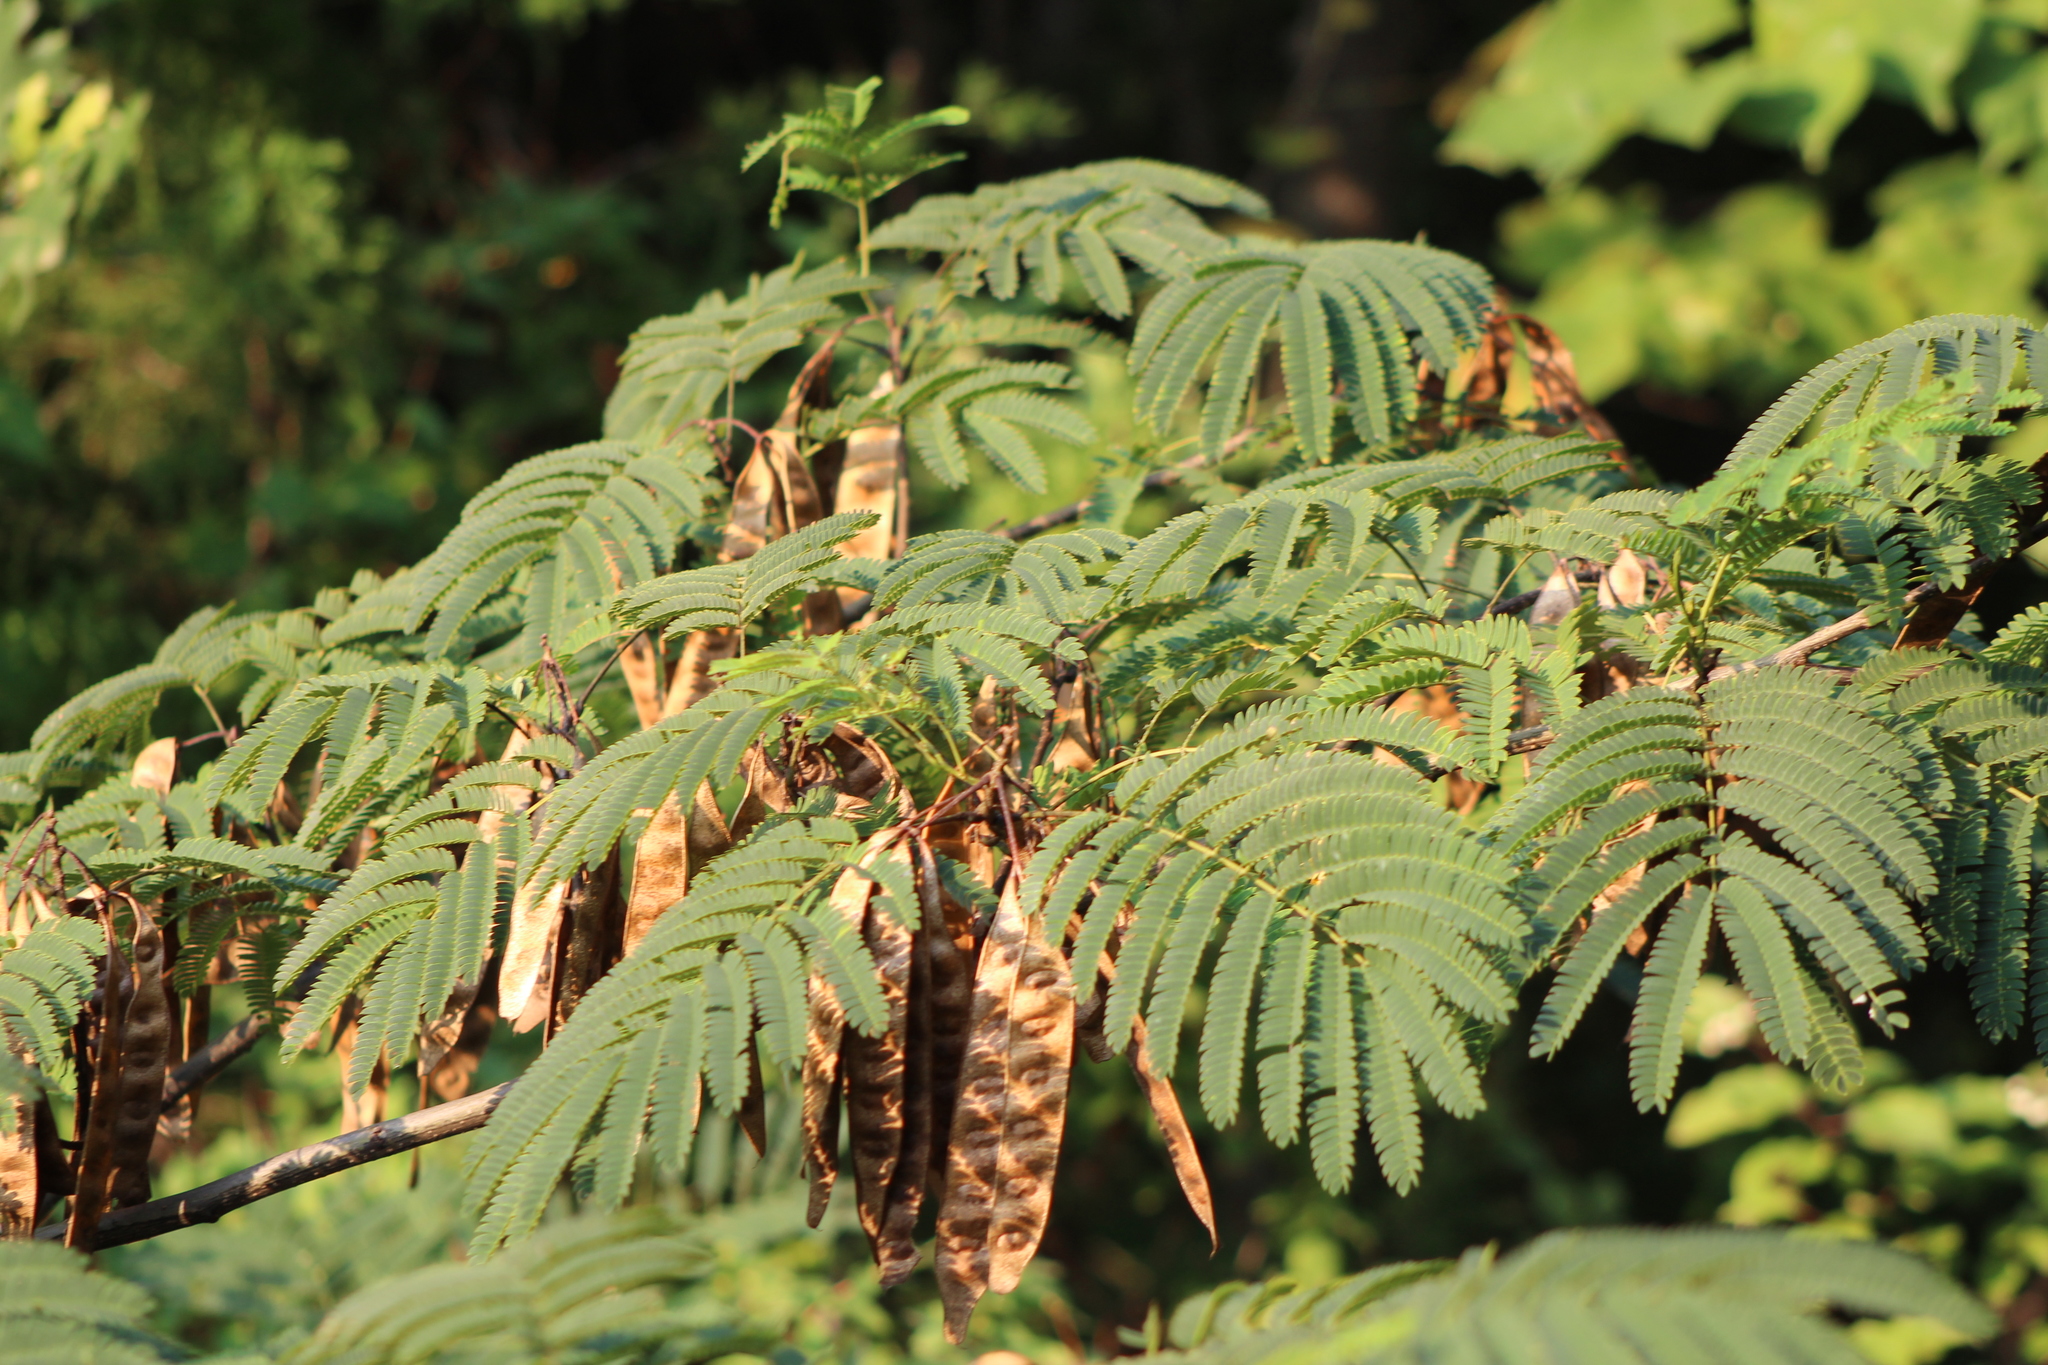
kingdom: Plantae
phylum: Tracheophyta
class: Magnoliopsida
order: Fabales
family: Fabaceae
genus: Albizia
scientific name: Albizia julibrissin
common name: Silktree
